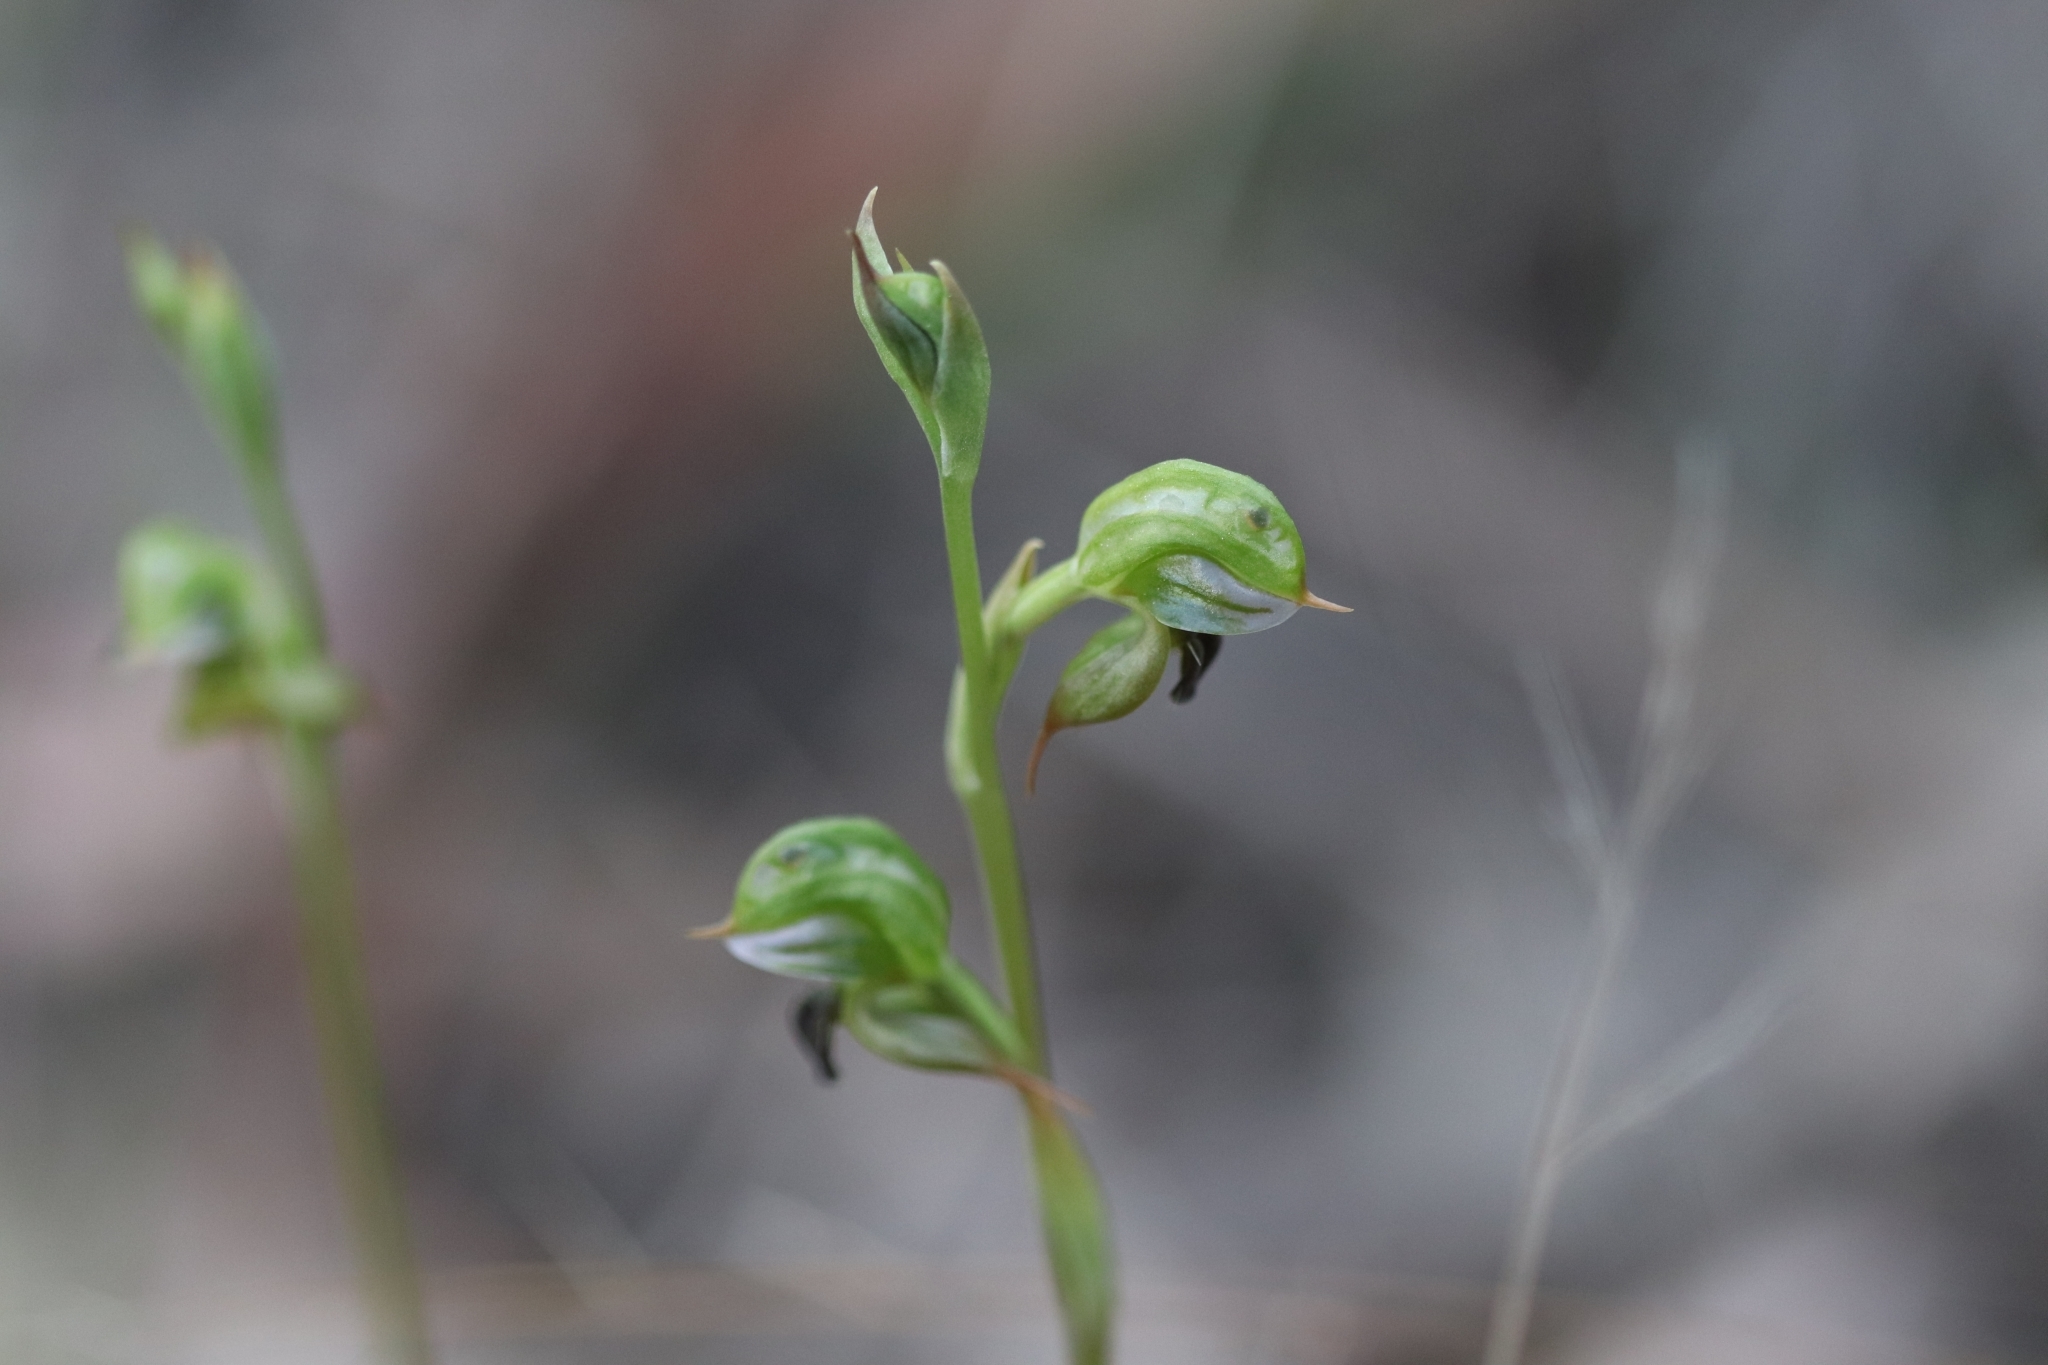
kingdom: Plantae
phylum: Tracheophyta
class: Liliopsida
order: Asparagales
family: Orchidaceae
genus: Pterostylis
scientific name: Pterostylis gibbosa
